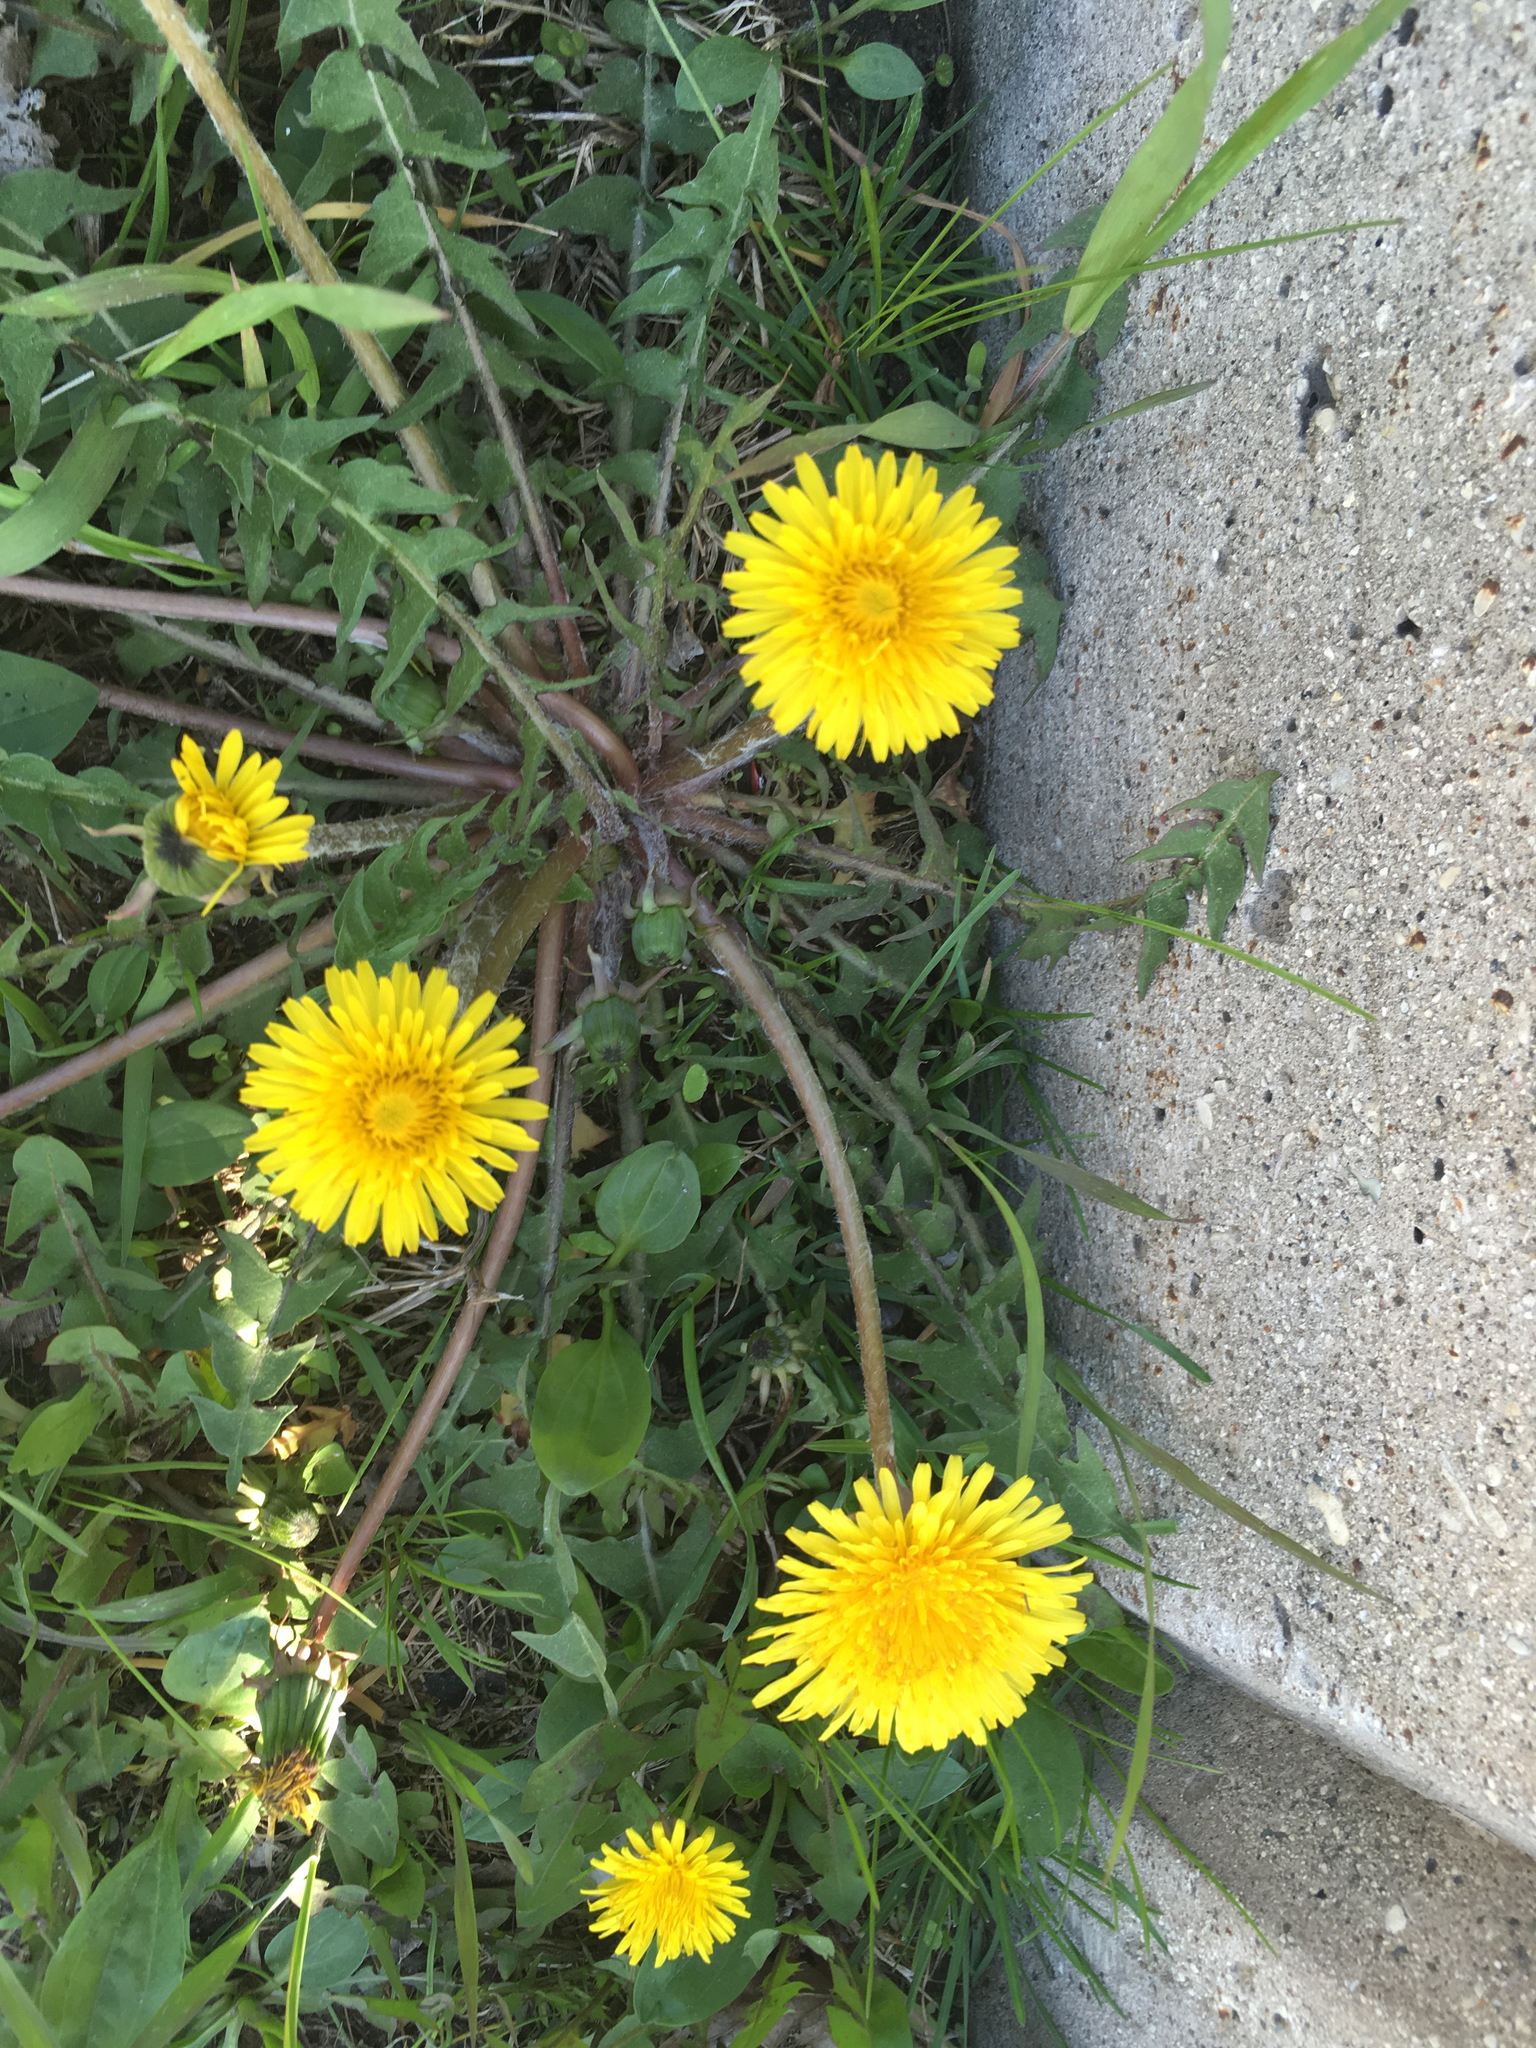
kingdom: Plantae
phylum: Tracheophyta
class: Magnoliopsida
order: Asterales
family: Asteraceae
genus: Taraxacum
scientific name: Taraxacum officinale
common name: Common dandelion
